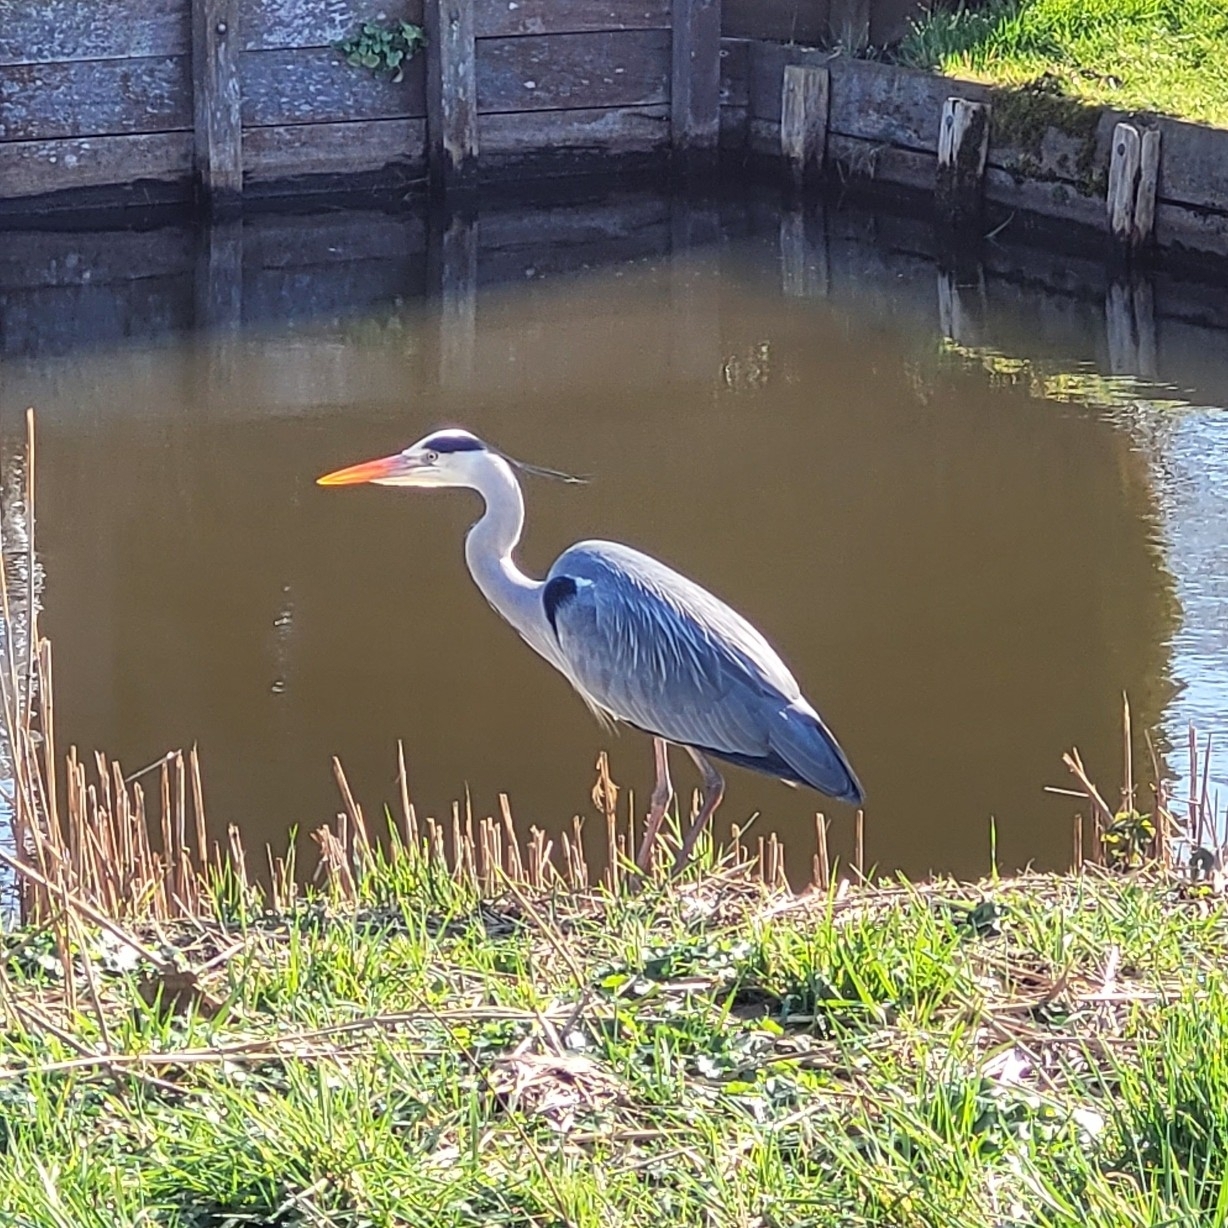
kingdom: Animalia
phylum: Chordata
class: Aves
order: Pelecaniformes
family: Ardeidae
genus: Ardea
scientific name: Ardea cinerea
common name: Grey heron
